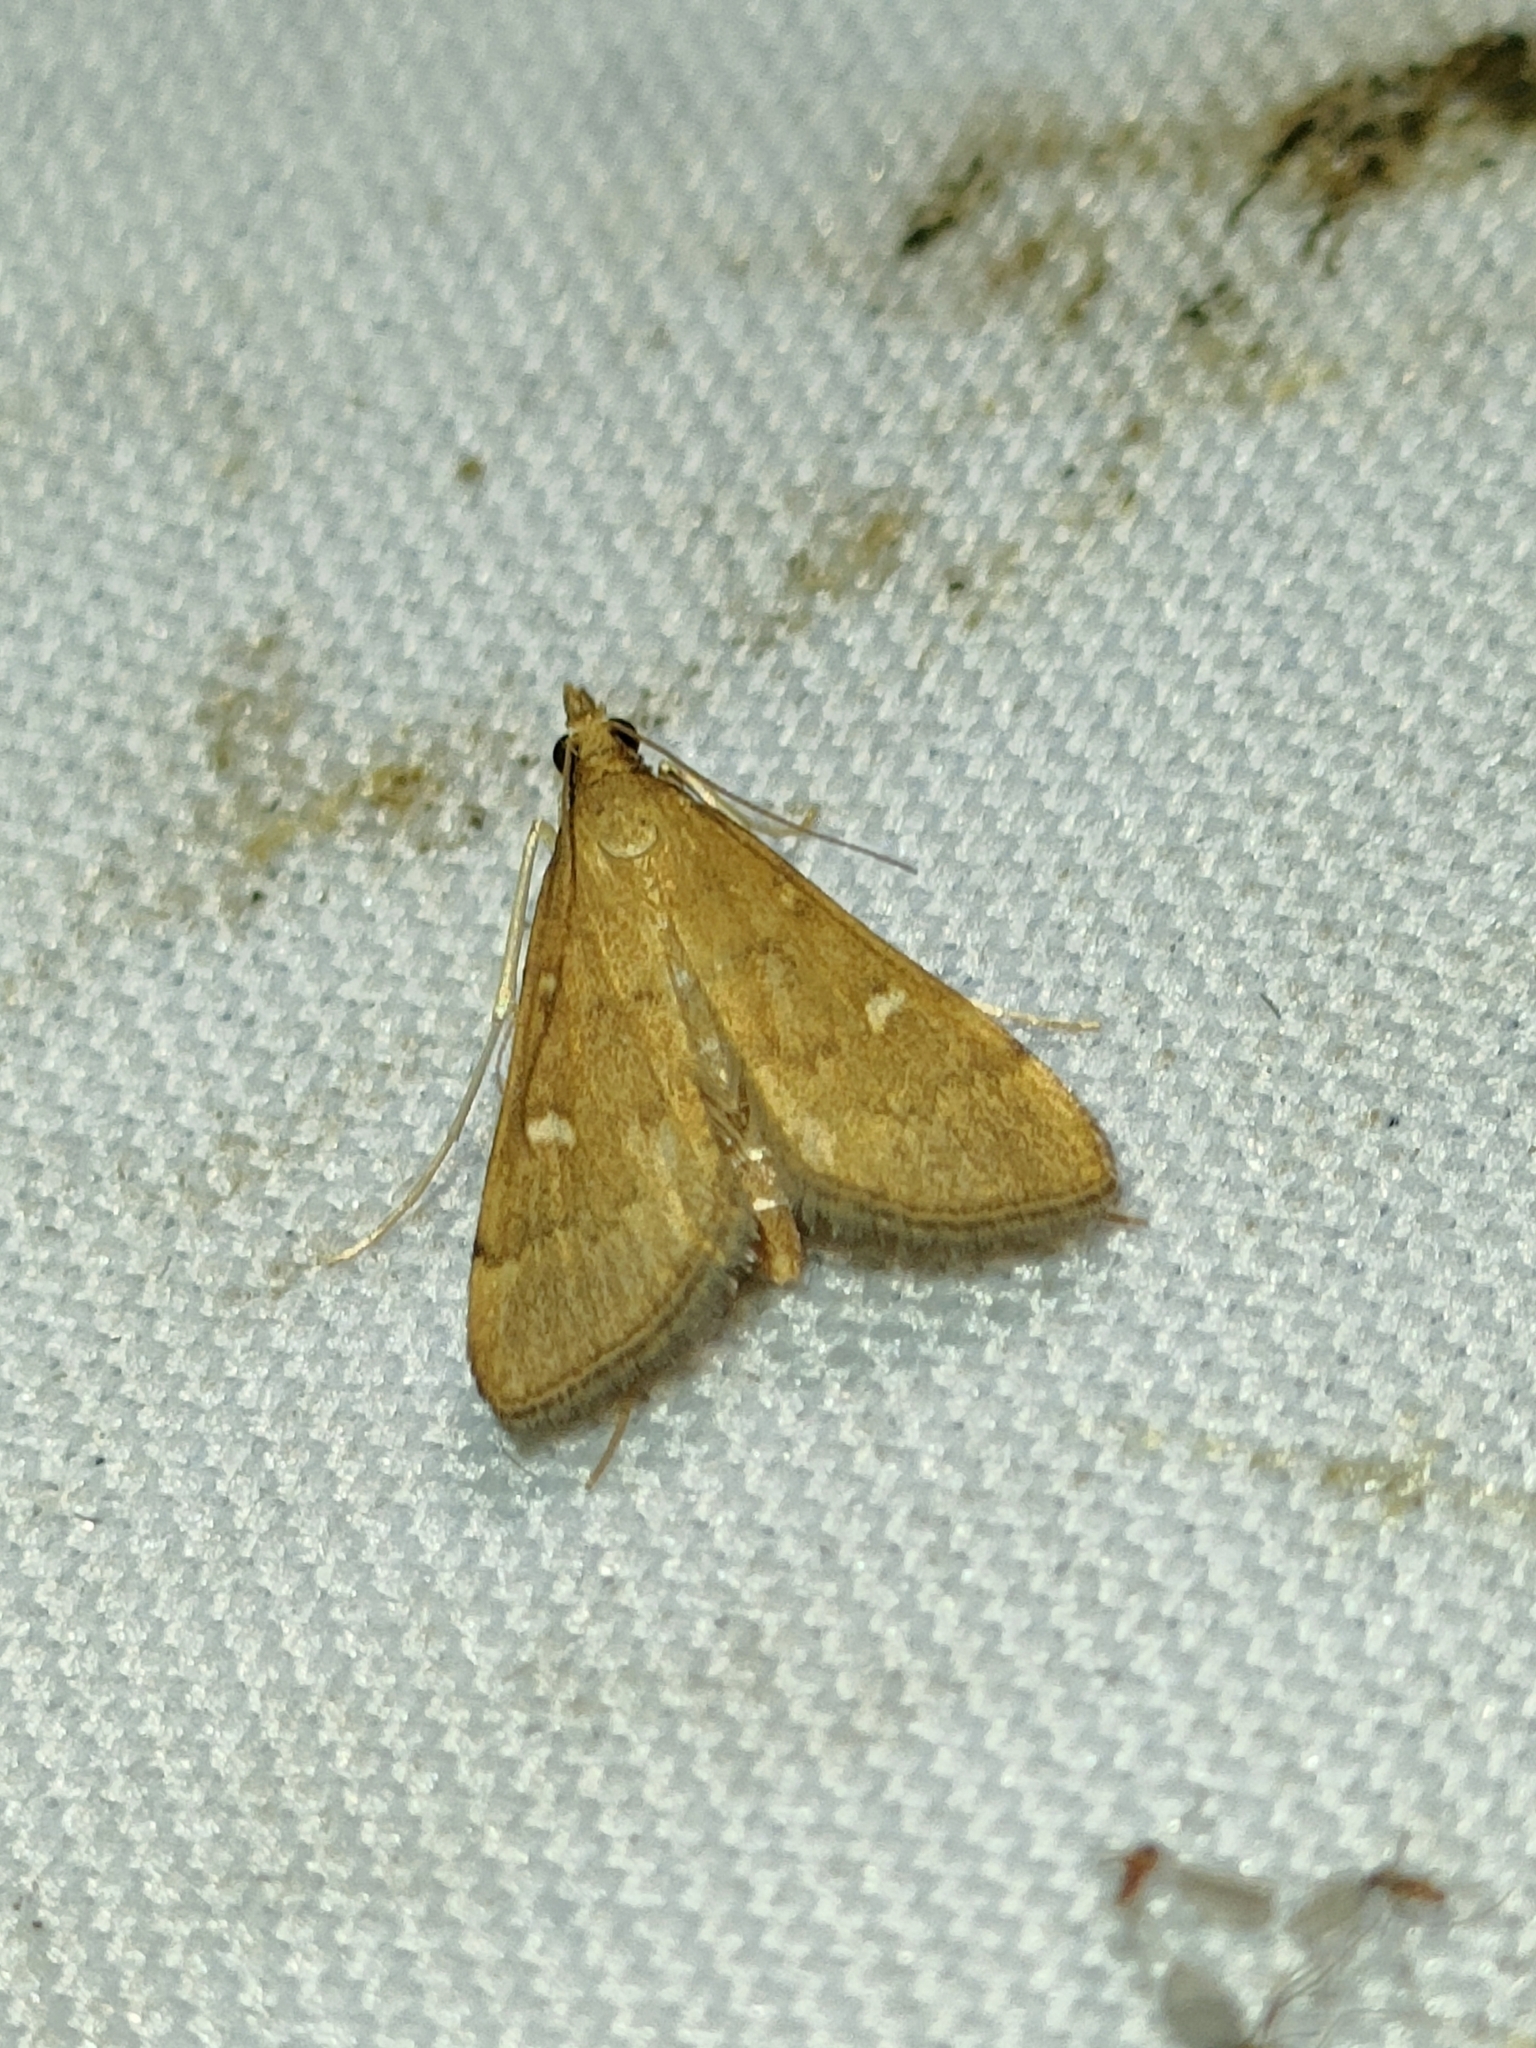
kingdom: Animalia
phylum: Arthropoda
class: Insecta
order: Lepidoptera
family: Crambidae
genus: Stenia
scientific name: Stenia Dolicharthria punctalis
